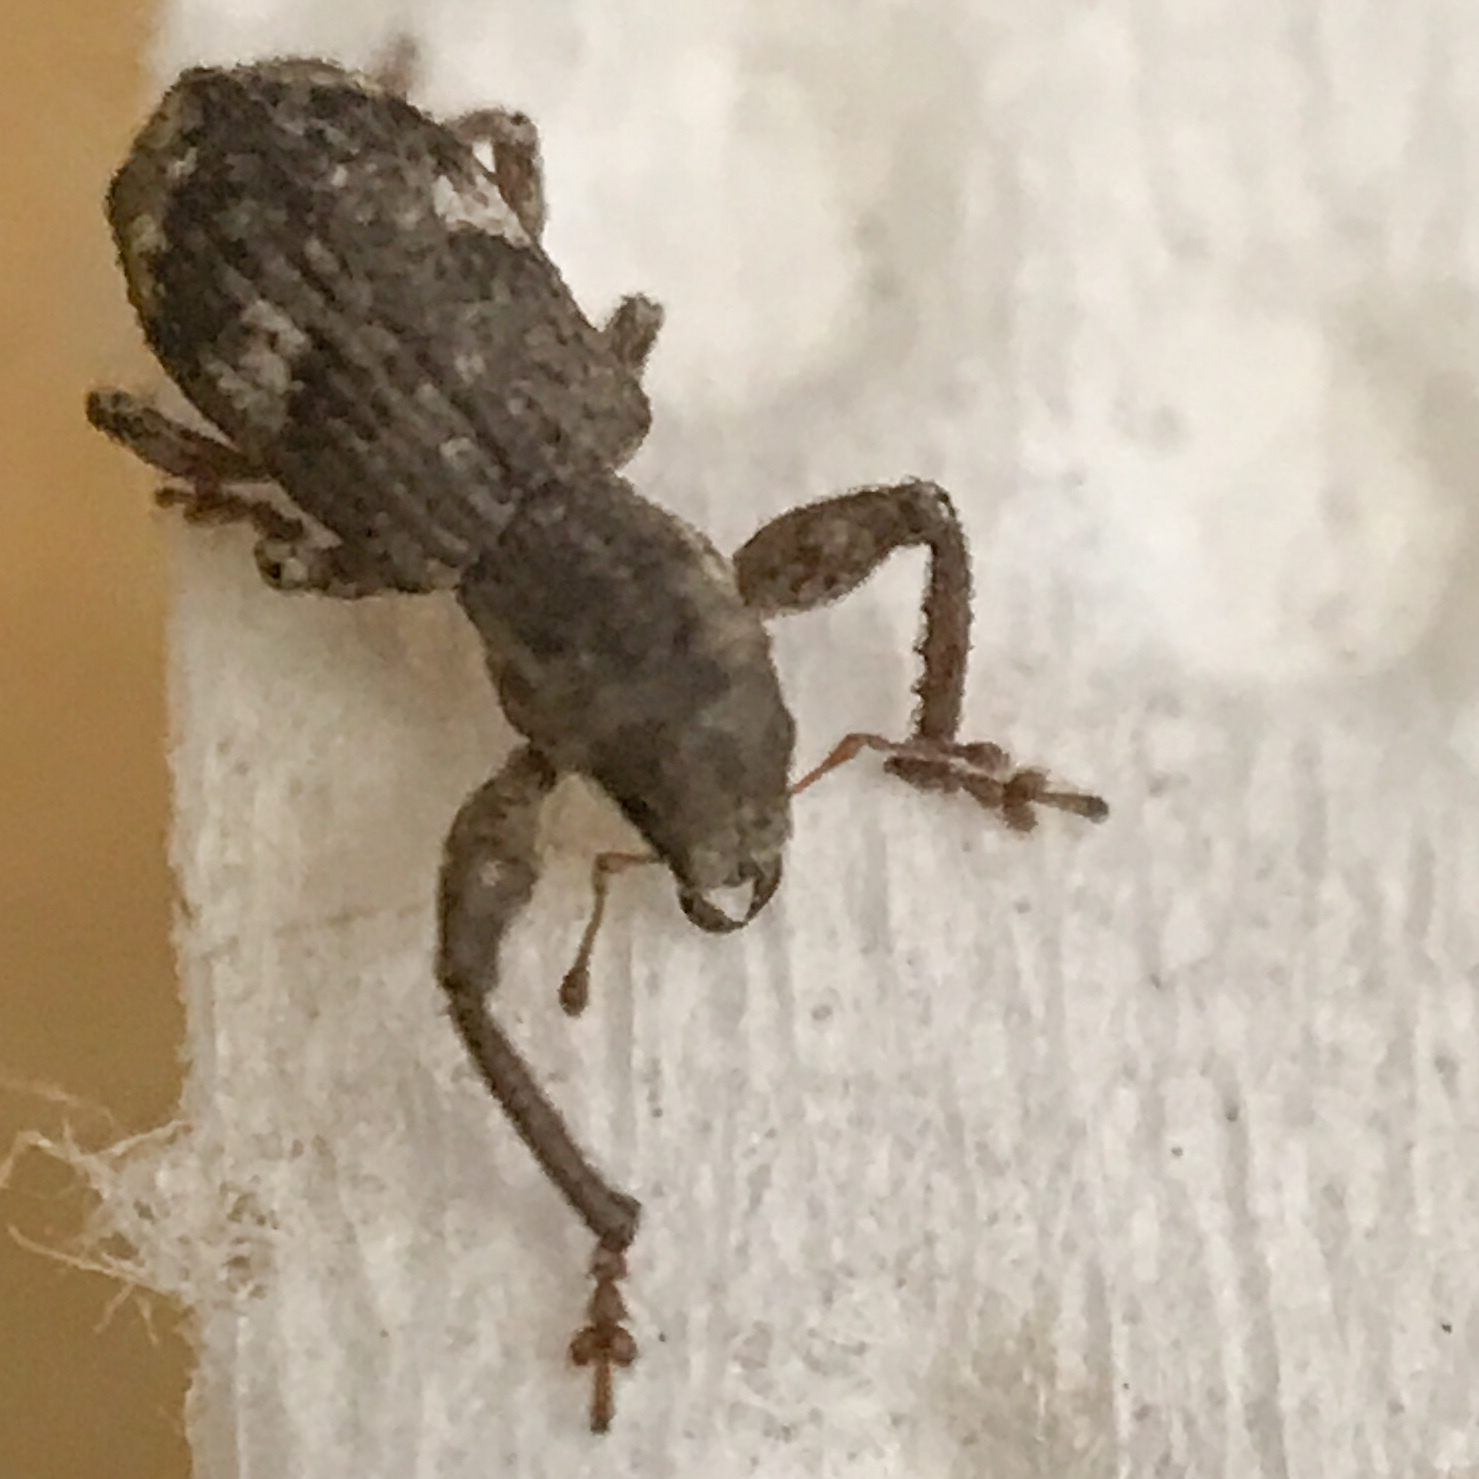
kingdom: Animalia
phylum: Arthropoda
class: Insecta
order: Coleoptera
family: Curculionidae
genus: Pandeleteius
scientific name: Pandeleteius cinereus
